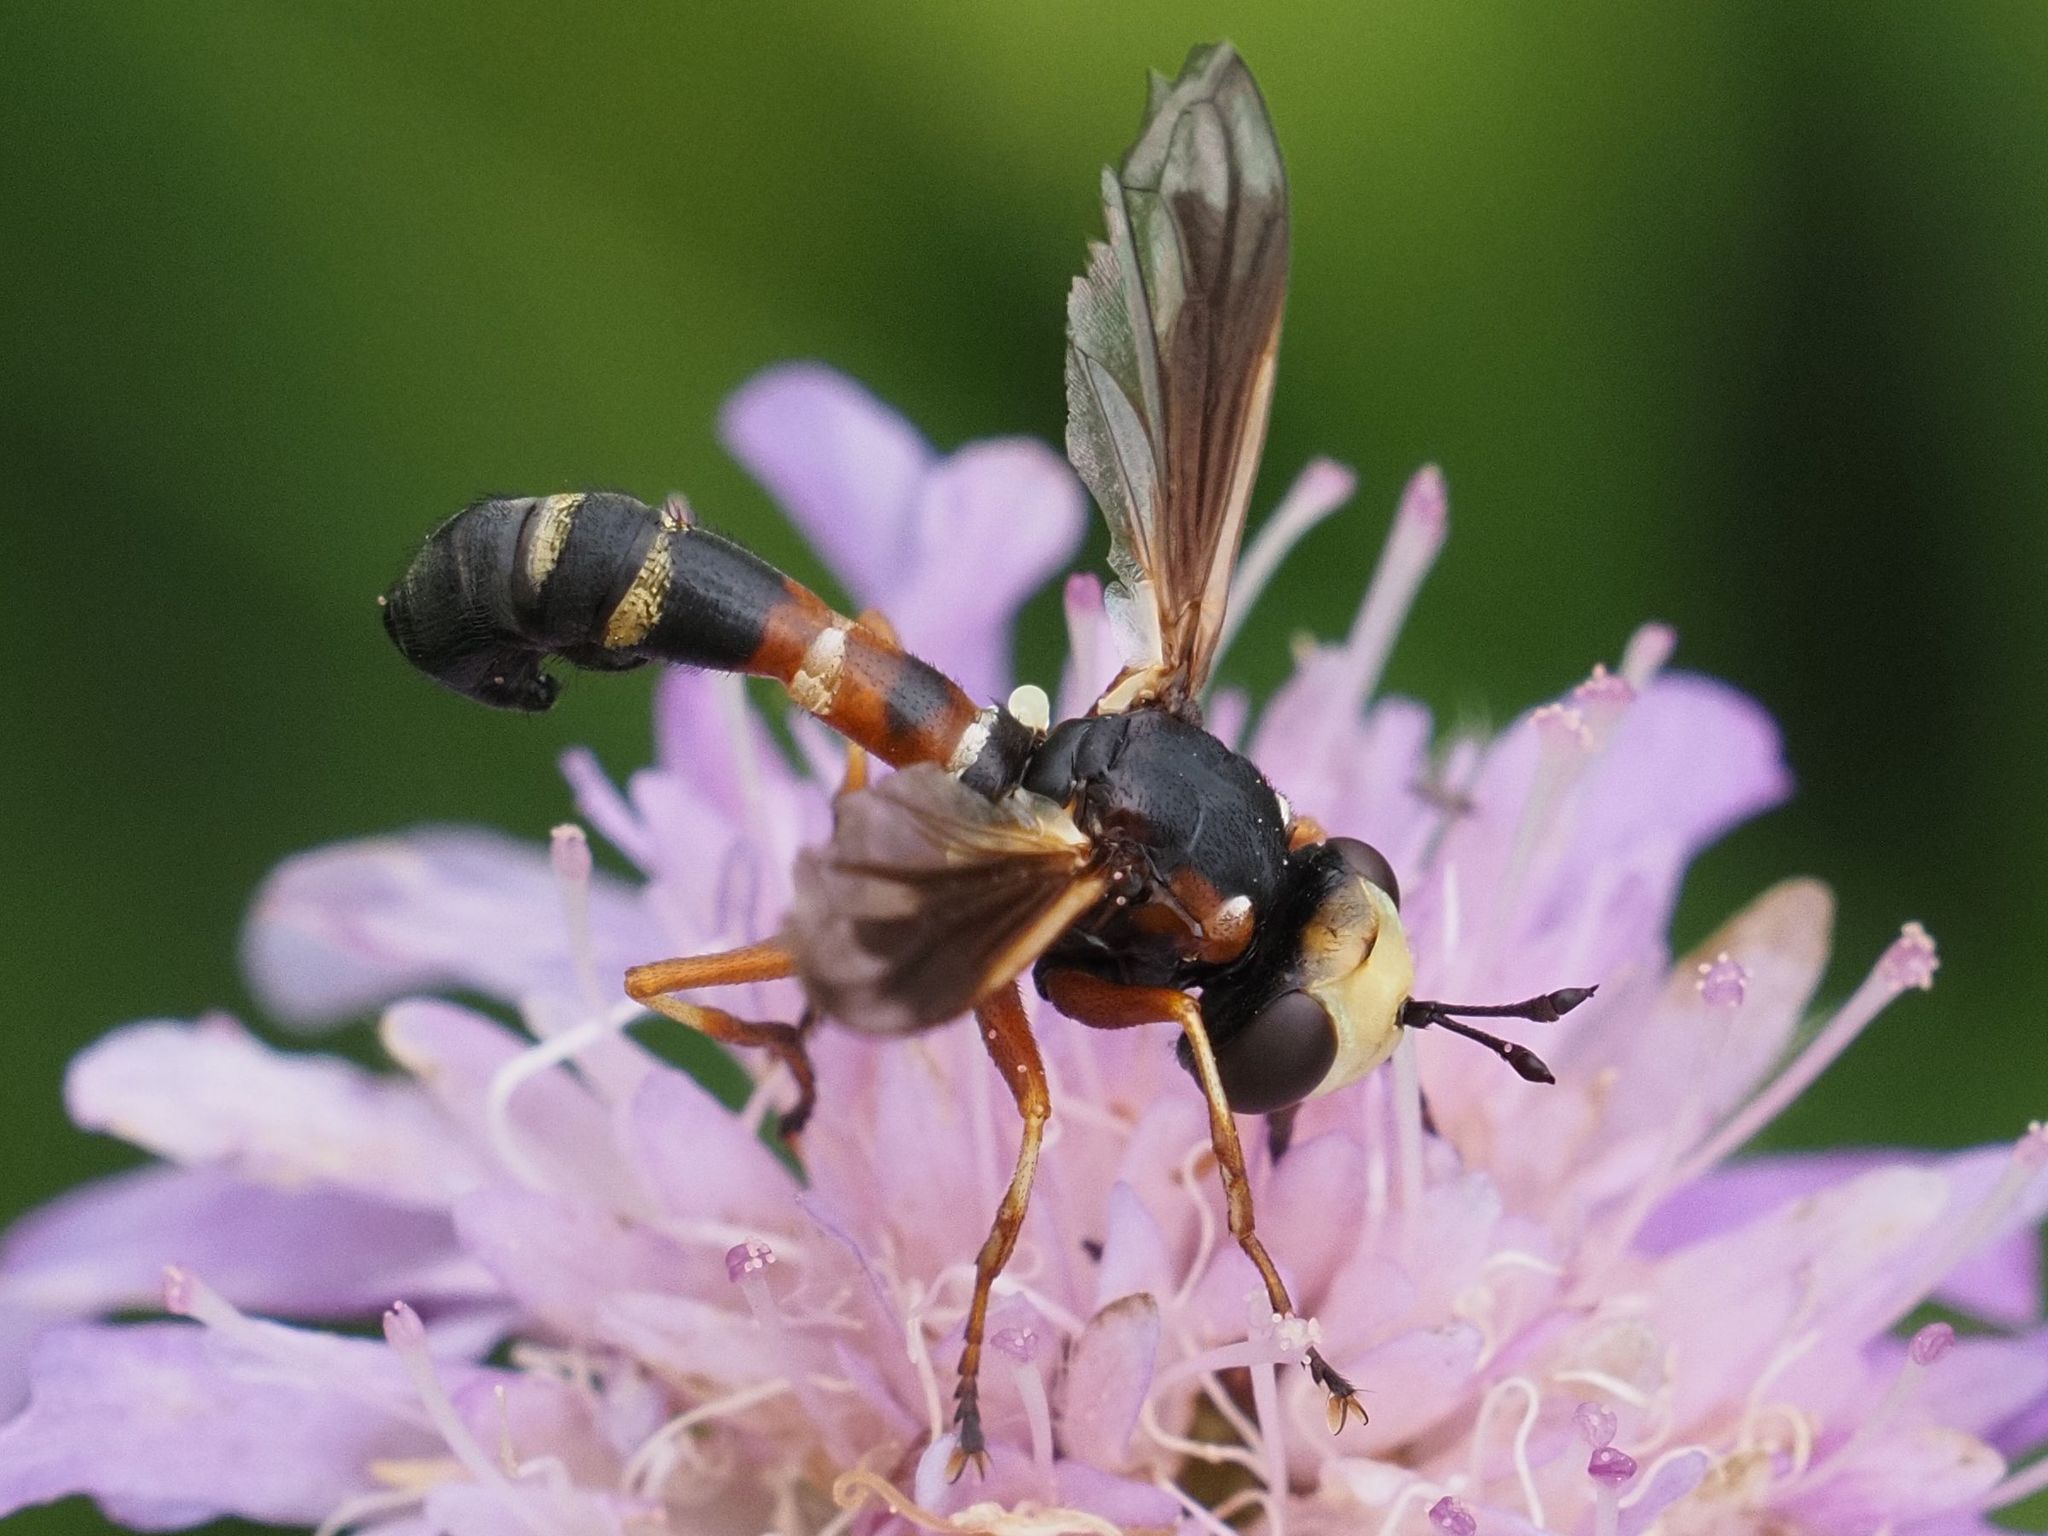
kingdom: Animalia
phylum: Arthropoda
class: Insecta
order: Diptera
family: Conopidae
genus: Physocephala
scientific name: Physocephala vittata
